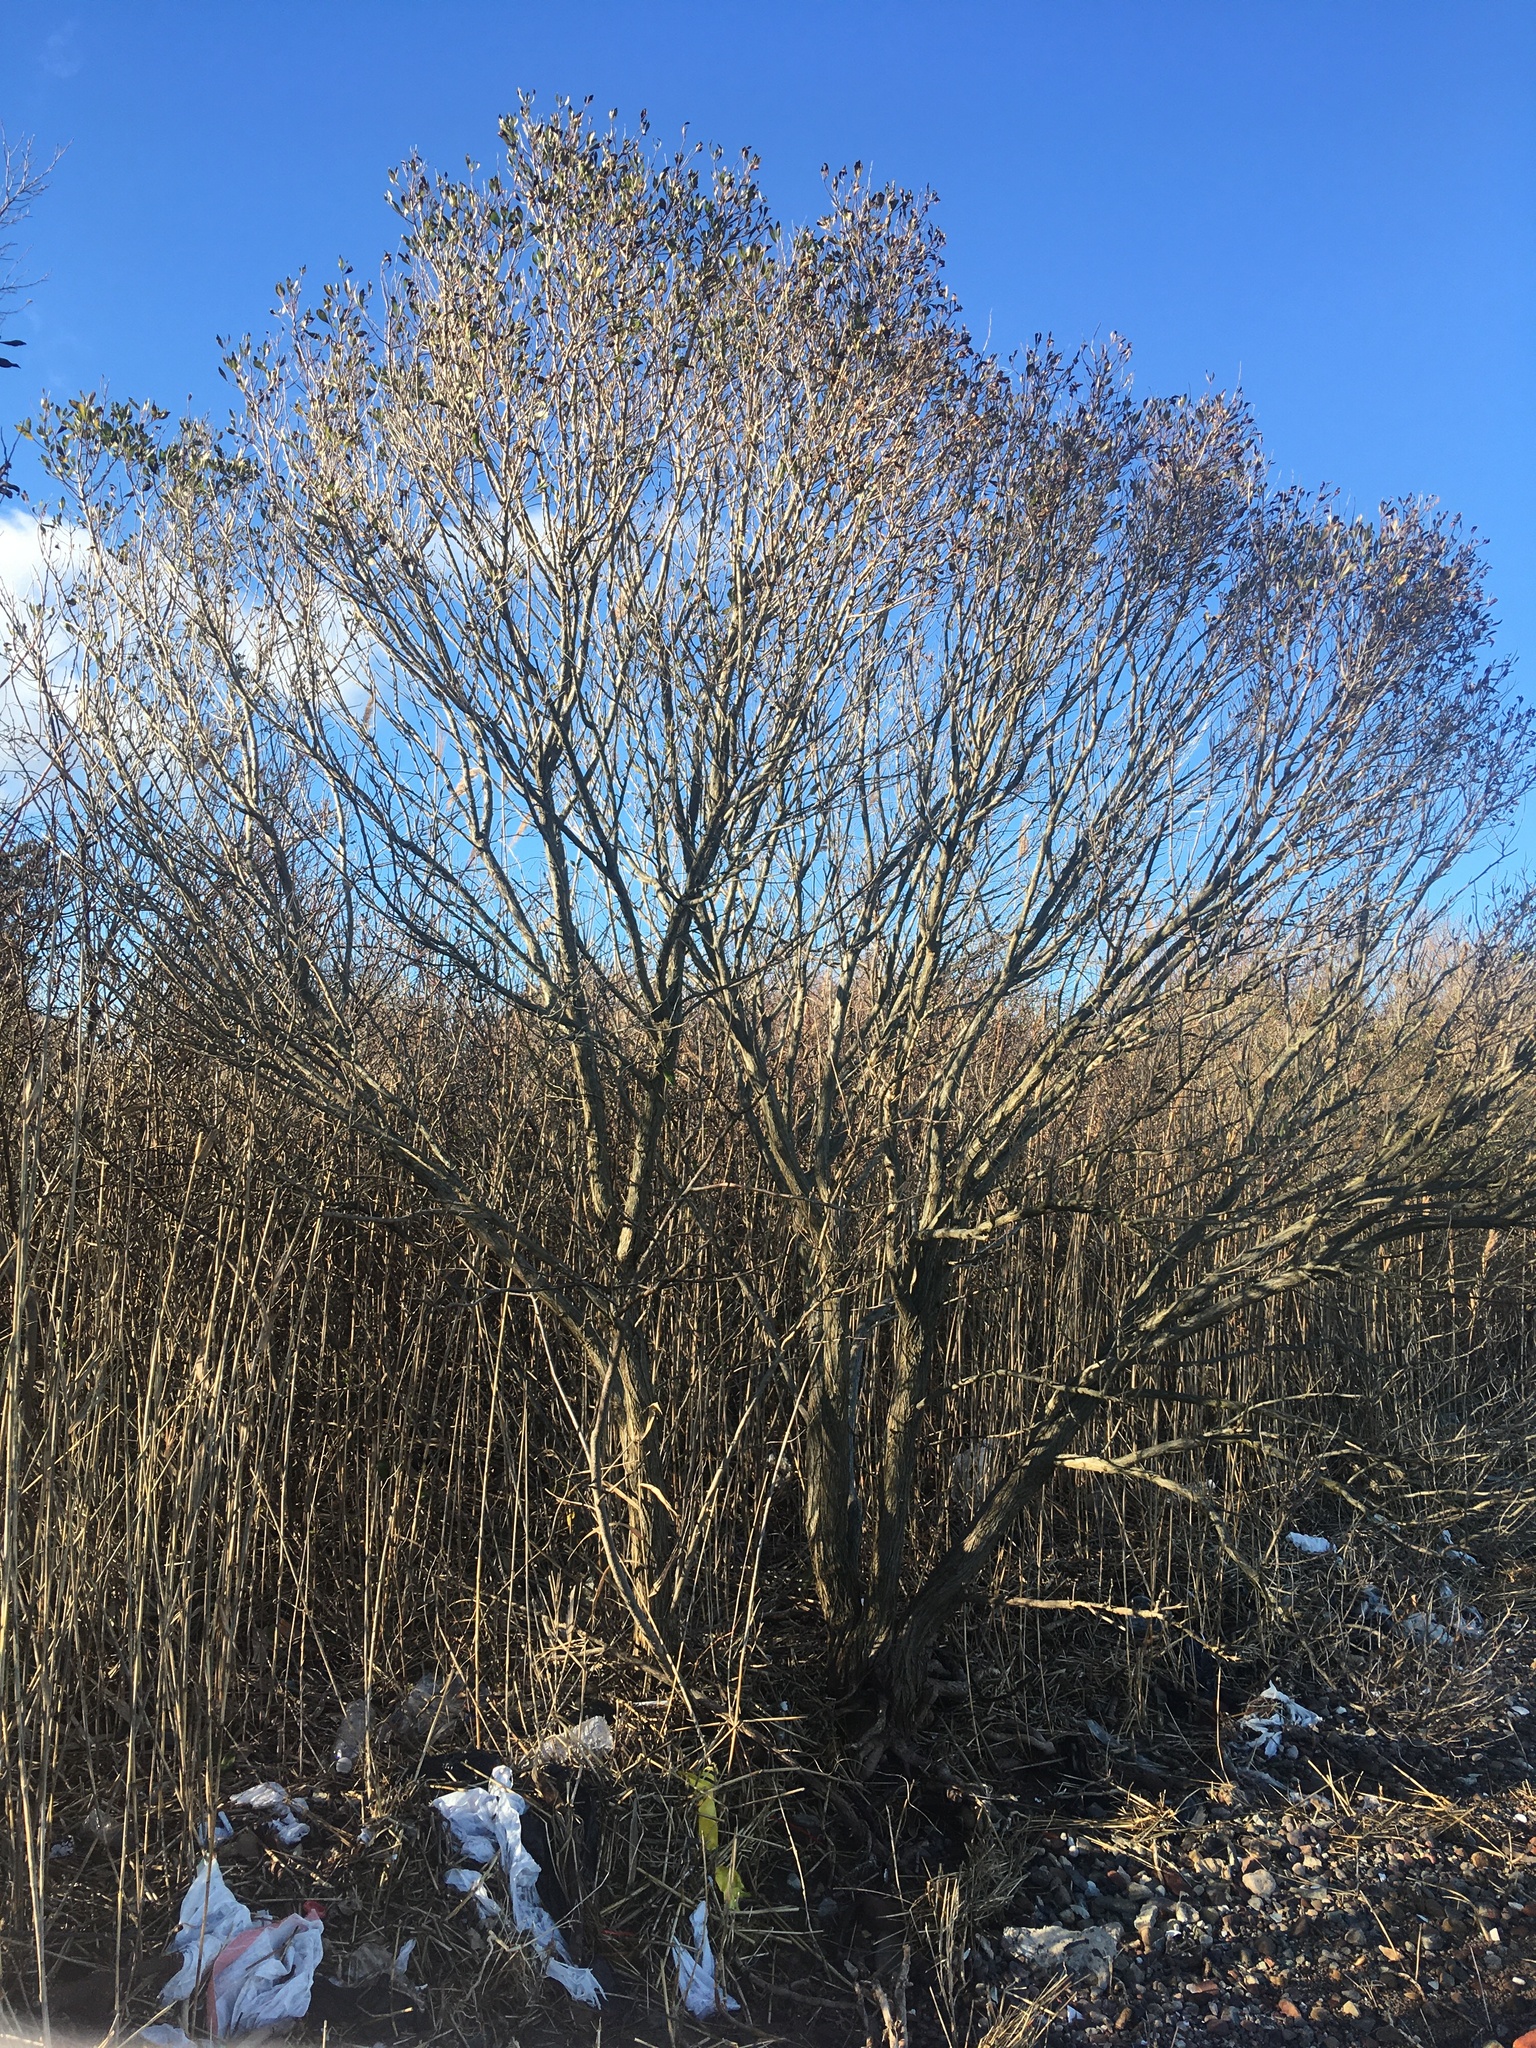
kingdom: Plantae
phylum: Tracheophyta
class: Magnoliopsida
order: Asterales
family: Asteraceae
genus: Baccharis
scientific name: Baccharis halimifolia
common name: Eastern baccharis
